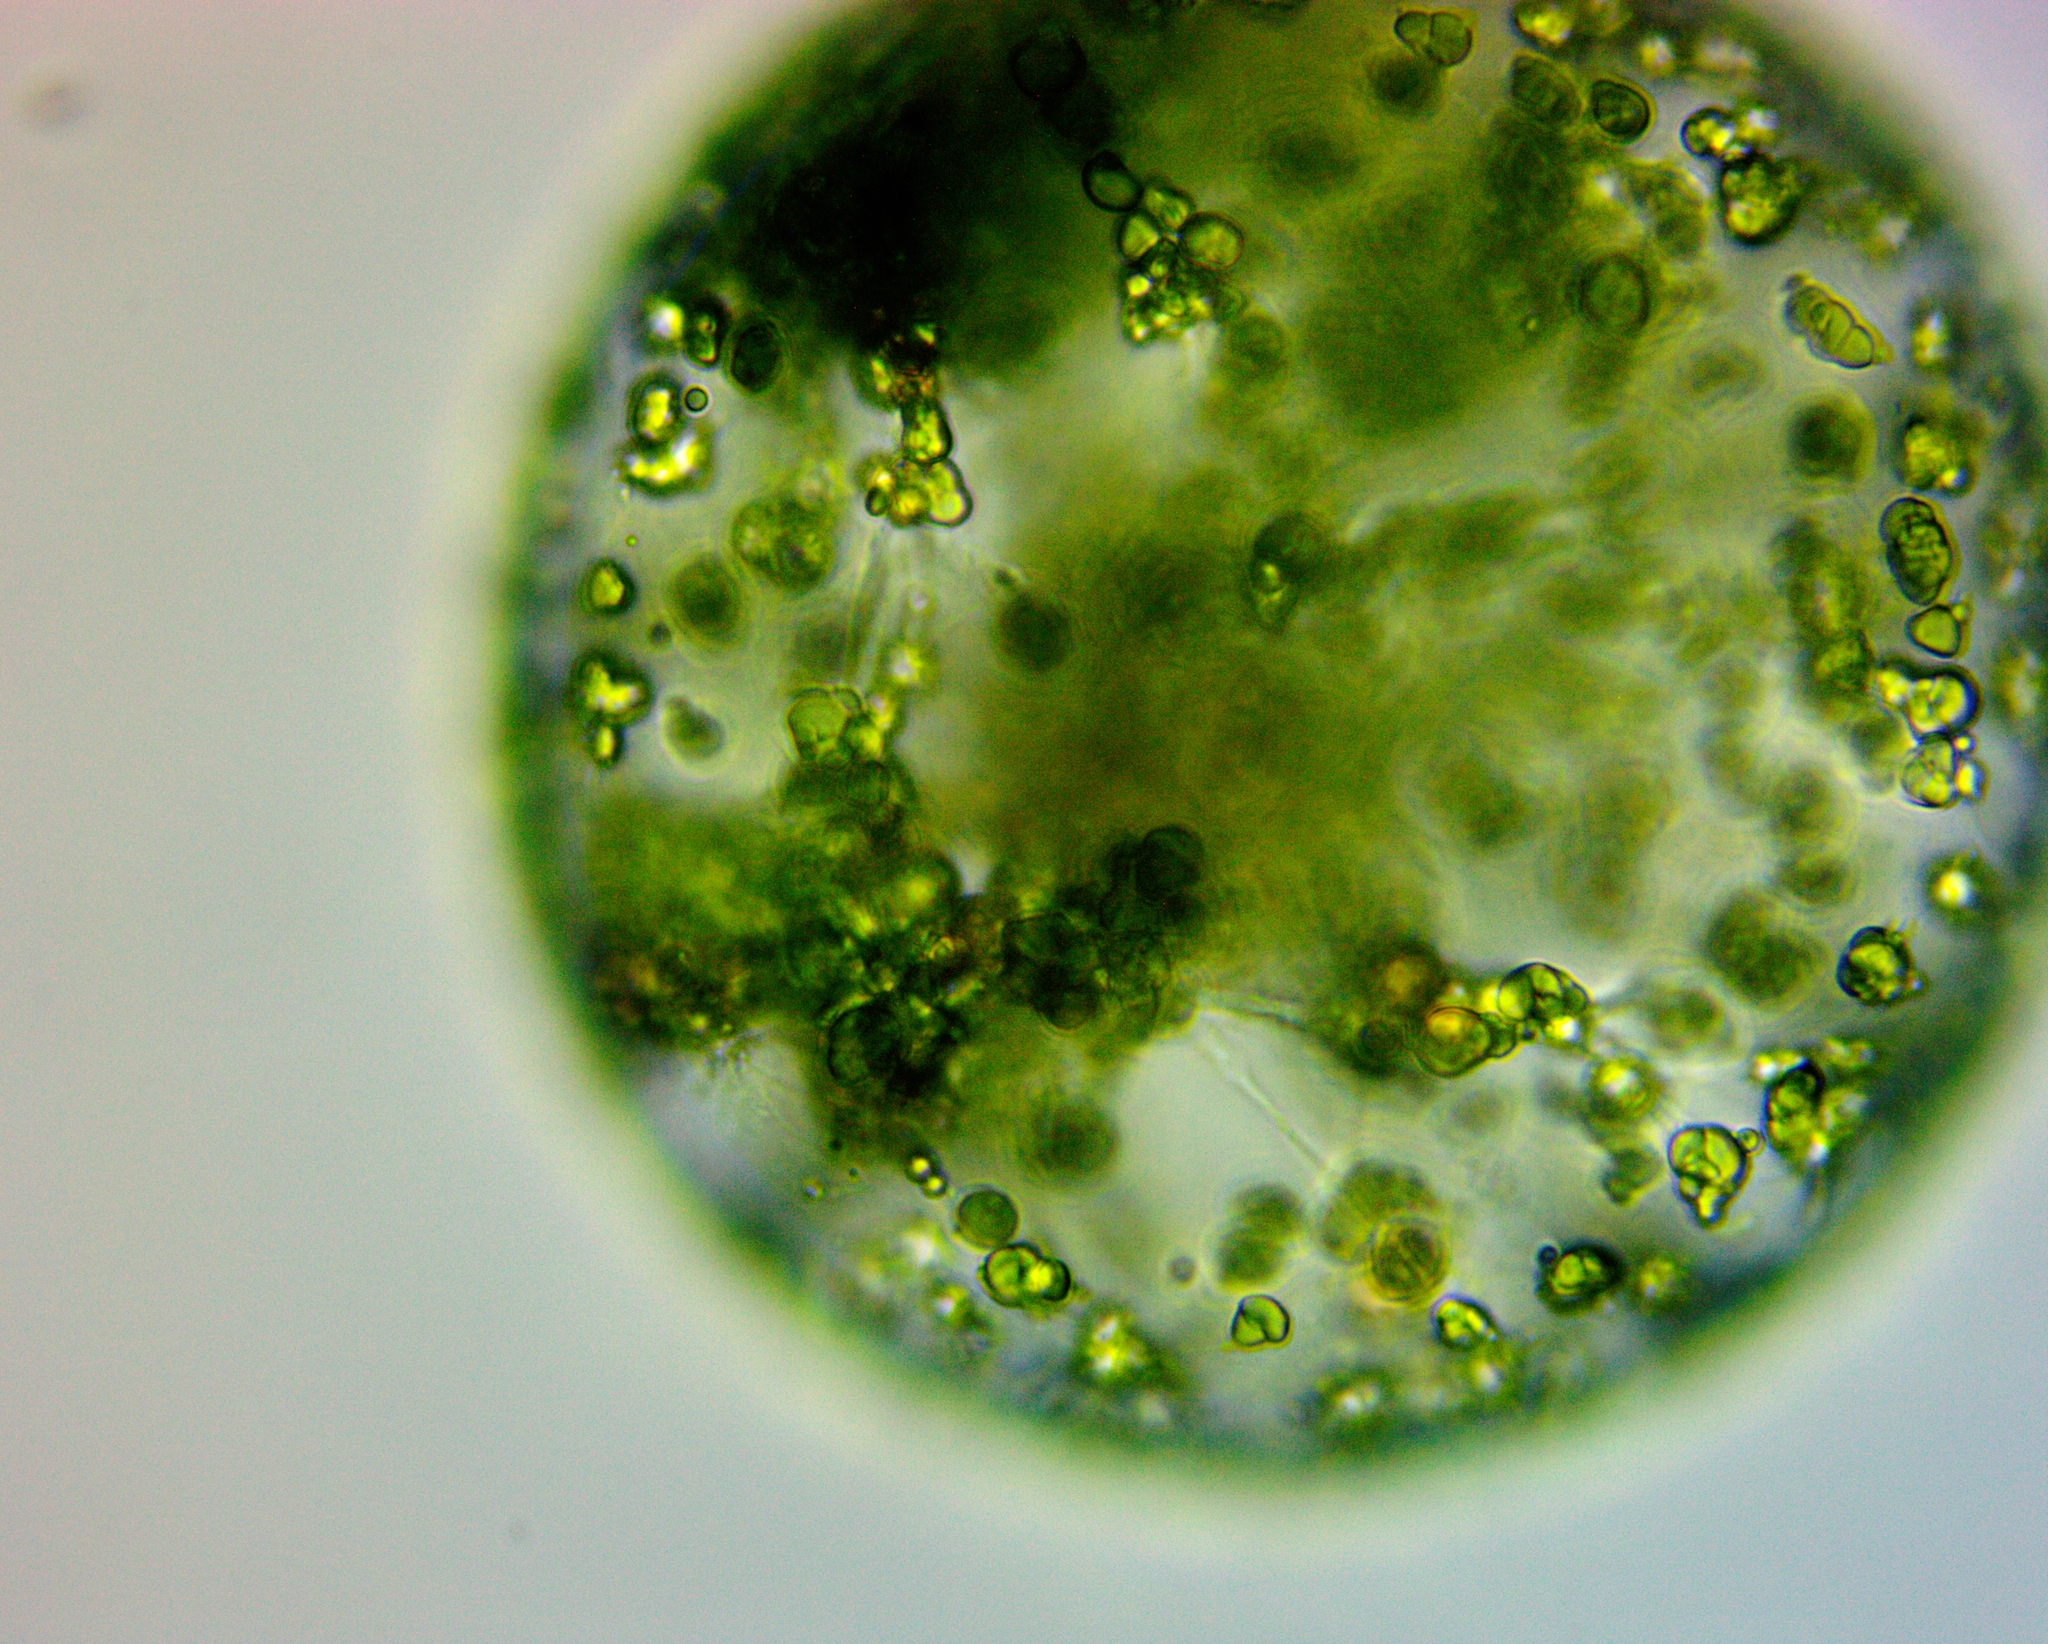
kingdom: Plantae
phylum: Chlorophyta
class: Trebouxiophyceae
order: Oocystales
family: Oocystaceae
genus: Eremosphaera
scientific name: Eremosphaera viridis
